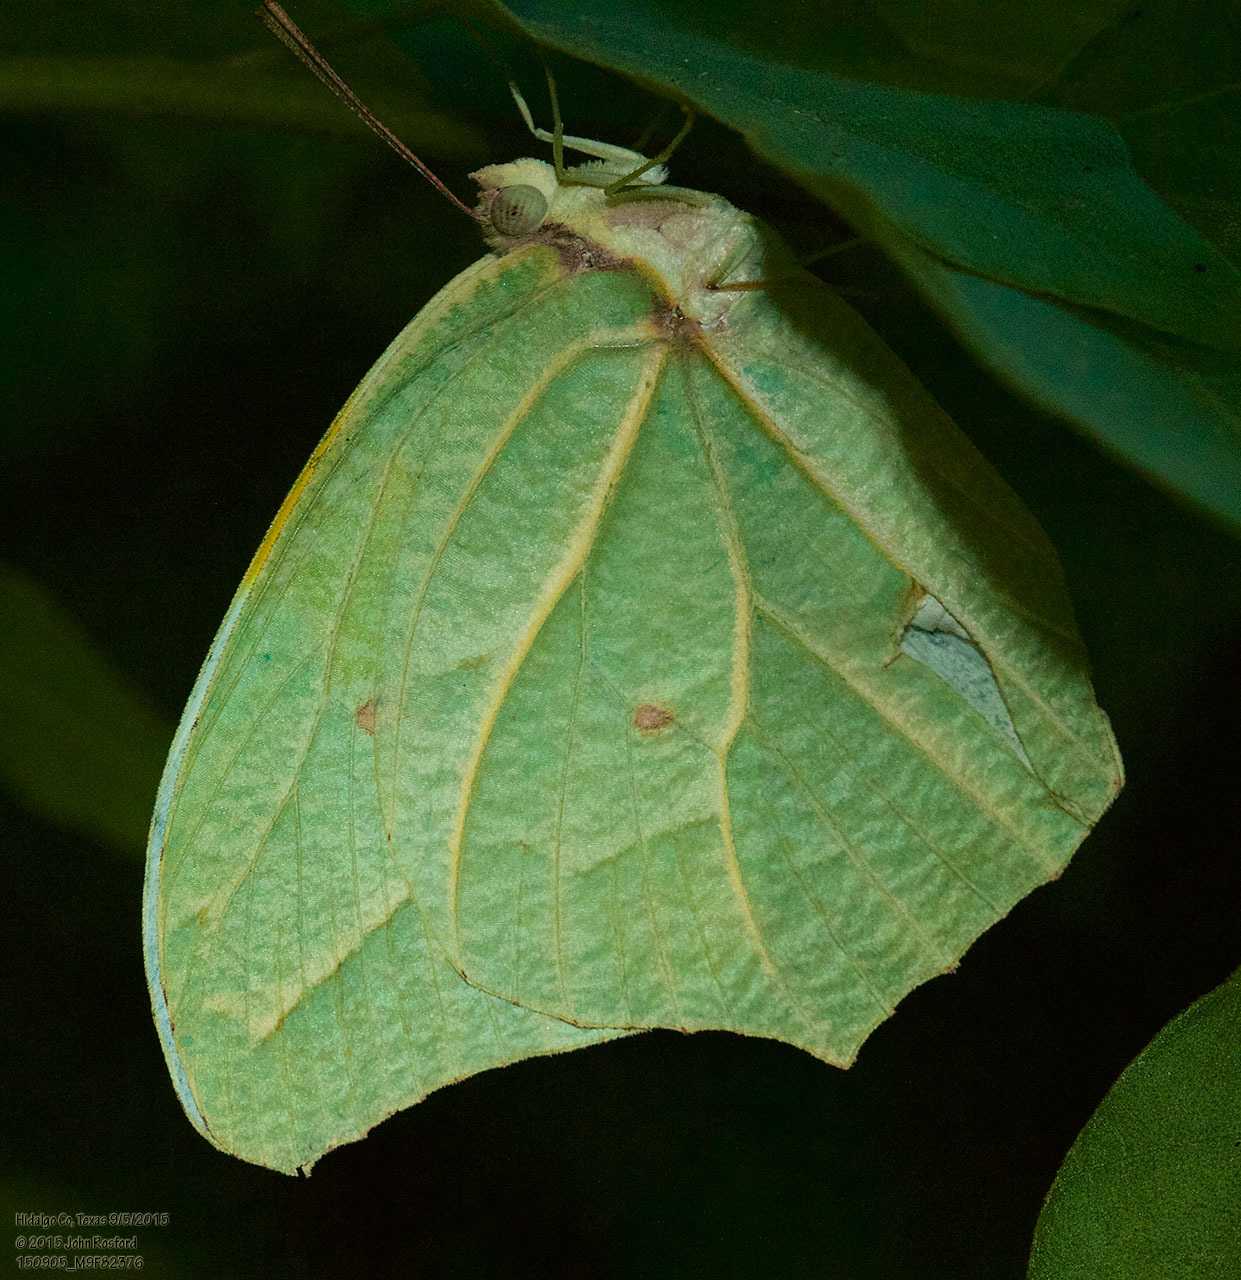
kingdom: Animalia
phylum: Arthropoda
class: Insecta
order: Lepidoptera
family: Pieridae
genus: Anteos
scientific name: Anteos clorinde
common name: White angled sulphur
